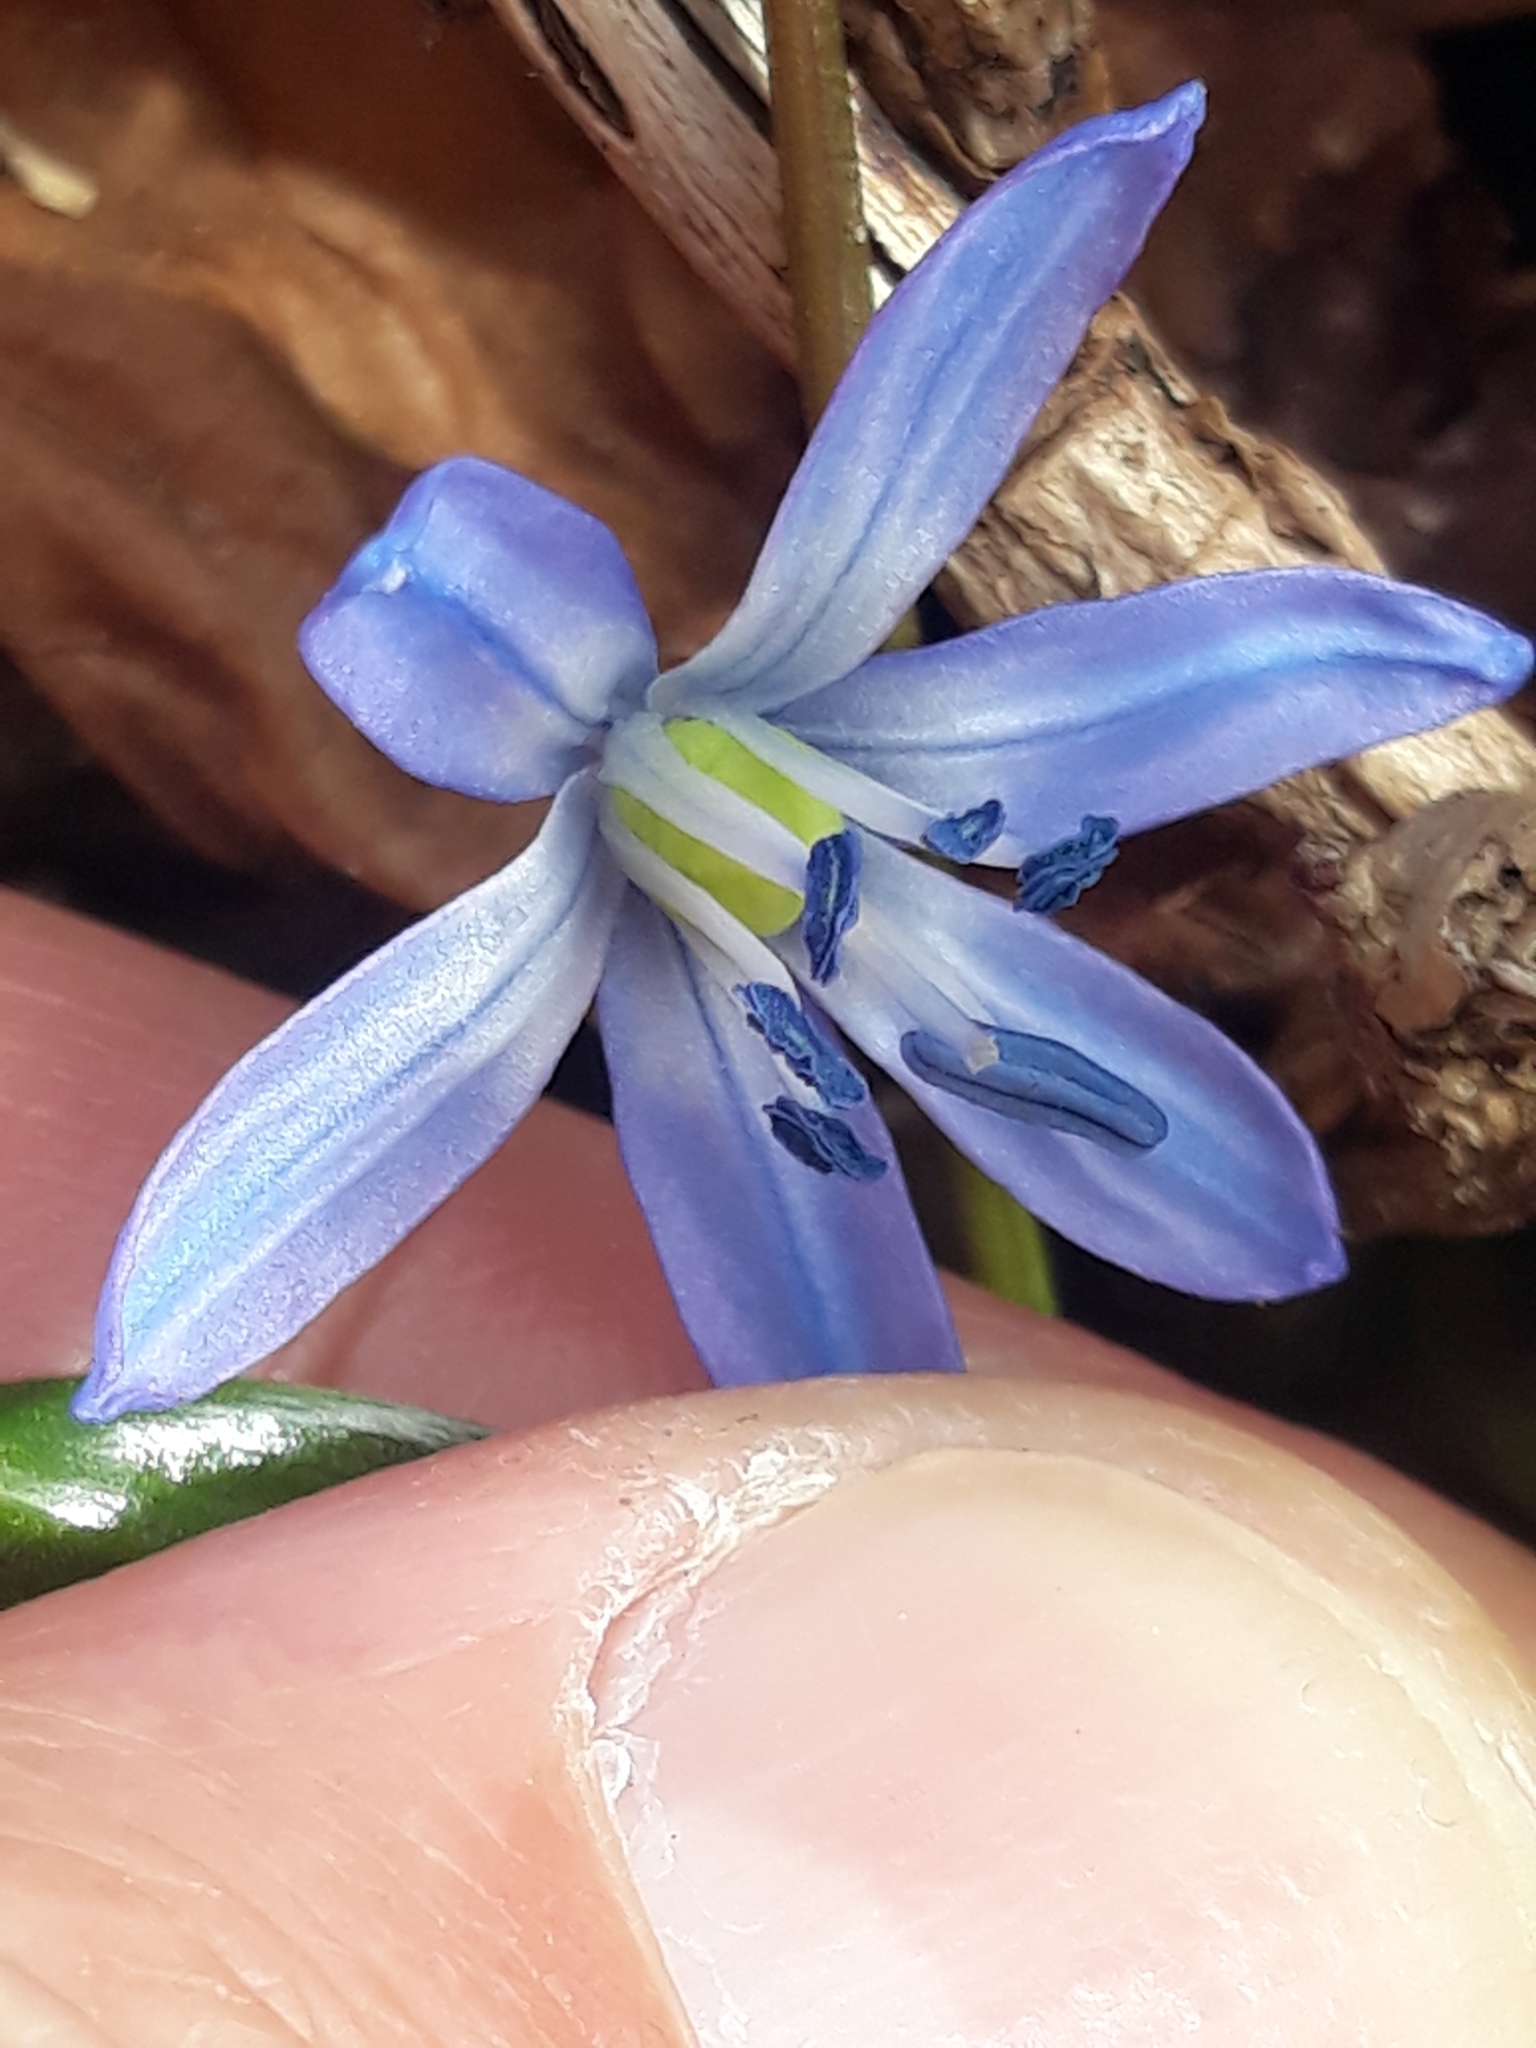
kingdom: Plantae
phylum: Tracheophyta
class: Liliopsida
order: Asparagales
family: Asparagaceae
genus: Scilla
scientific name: Scilla siberica
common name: Siberian squill
